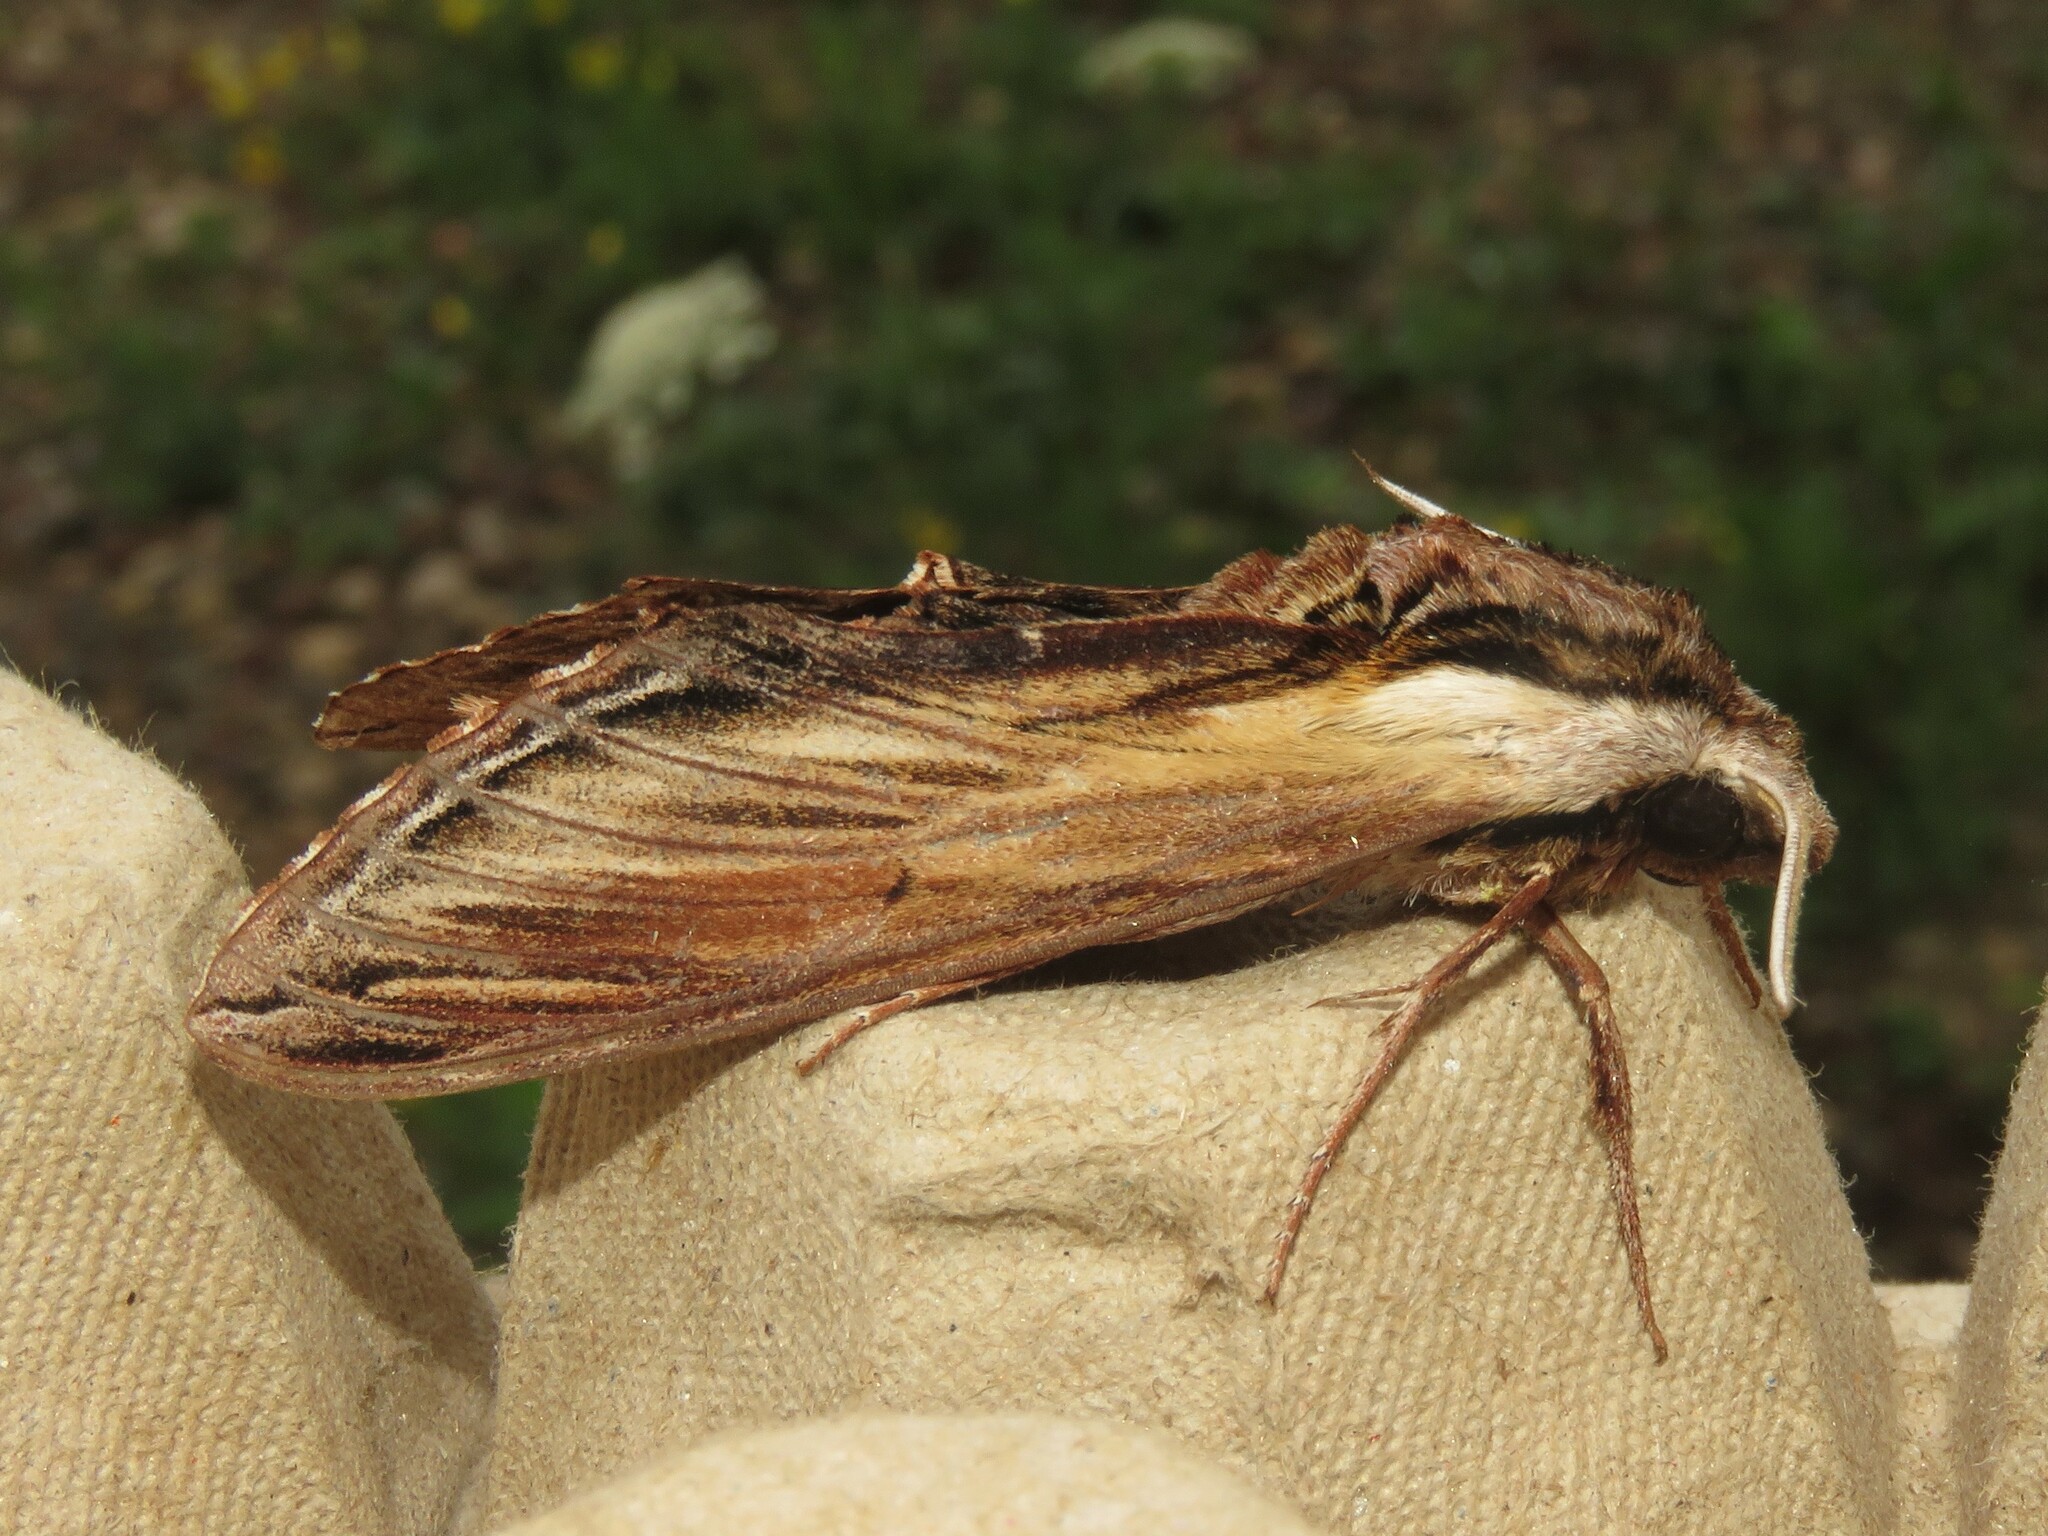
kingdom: Animalia
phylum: Arthropoda
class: Insecta
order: Lepidoptera
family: Sphingidae
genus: Sphinx
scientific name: Sphinx kalmiae
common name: Laurel sphinx
